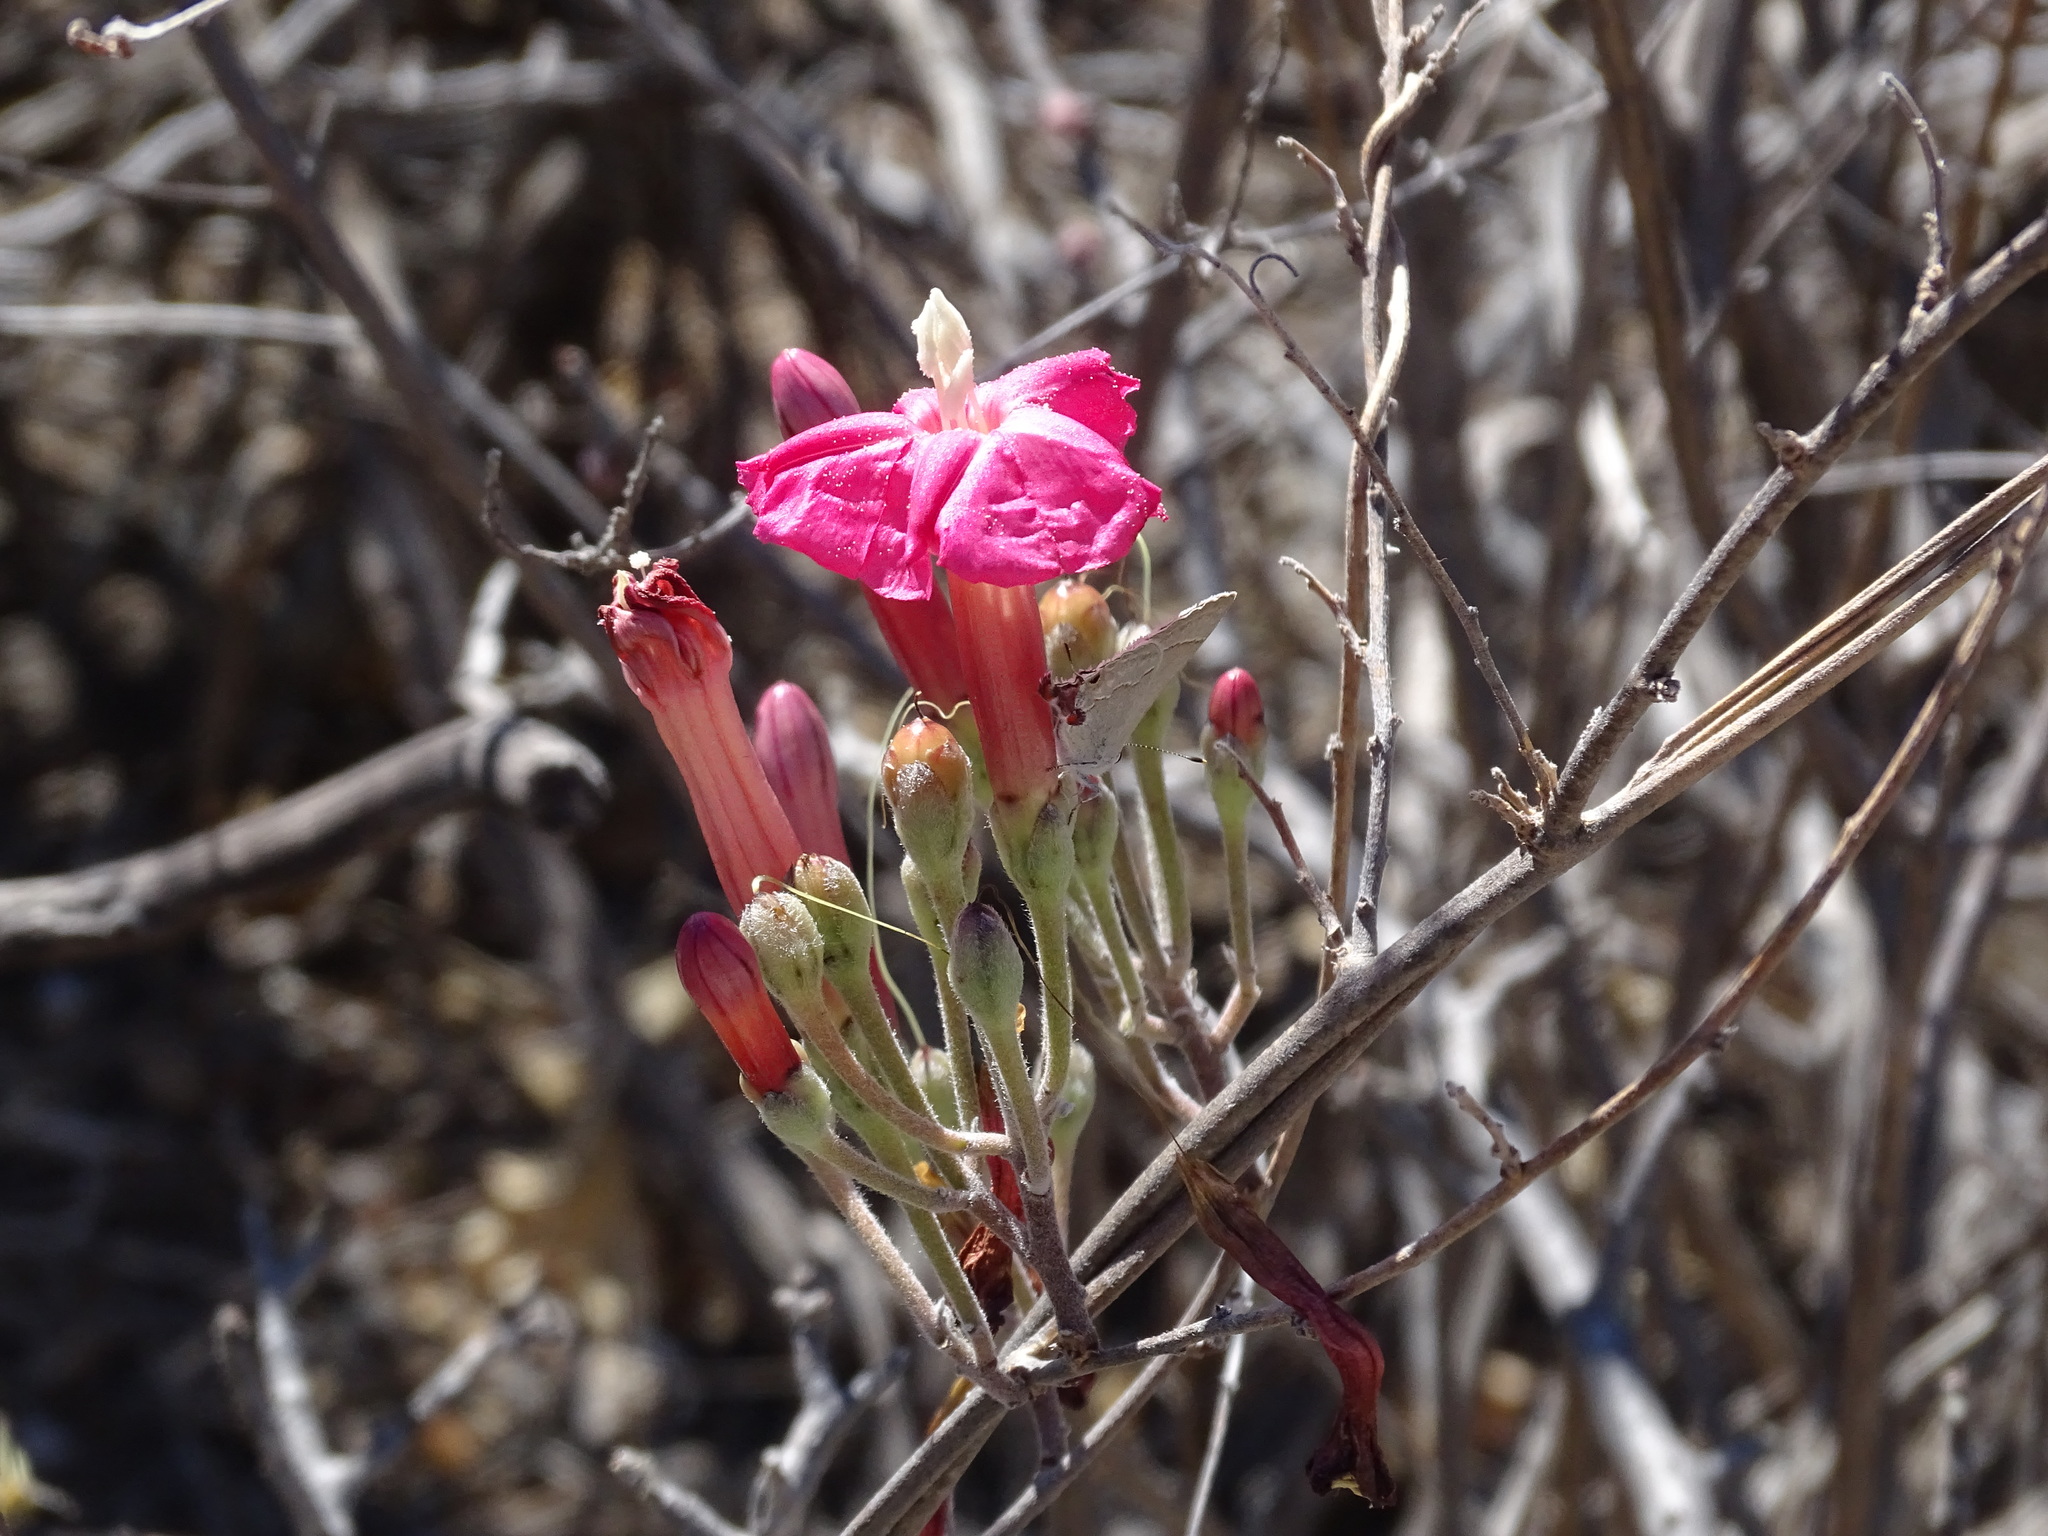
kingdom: Plantae
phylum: Tracheophyta
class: Magnoliopsida
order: Solanales
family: Convolvulaceae
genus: Ipomoea
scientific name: Ipomoea conzattii
